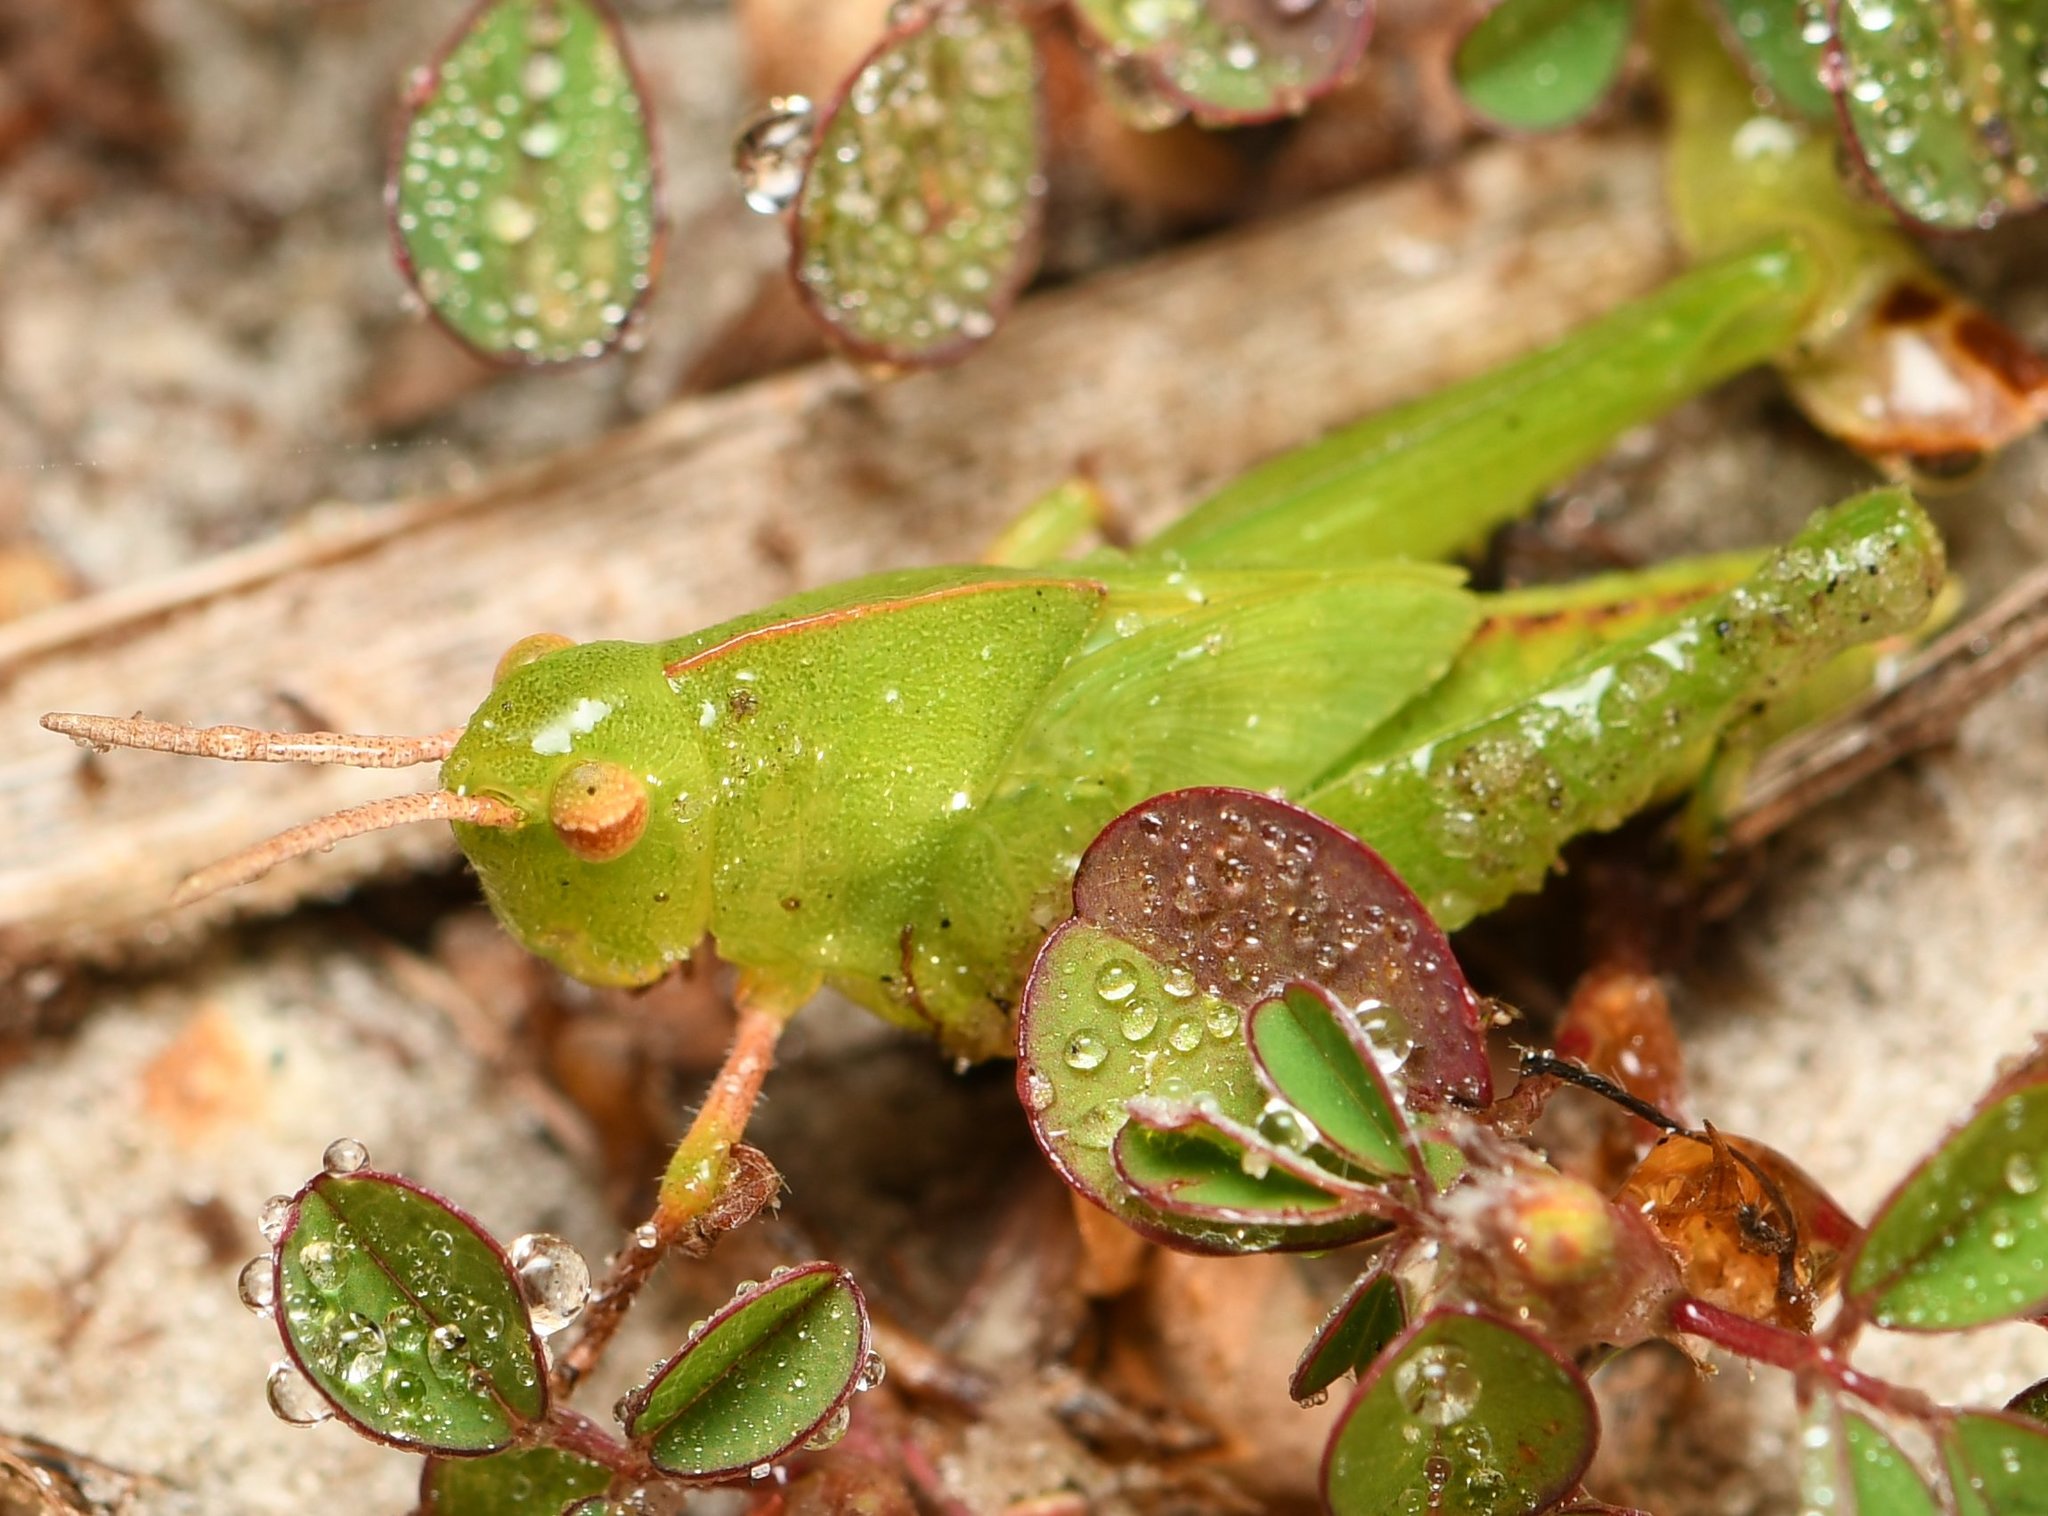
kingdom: Animalia
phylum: Arthropoda
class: Insecta
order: Orthoptera
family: Acrididae
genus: Chortophaga
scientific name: Chortophaga australior
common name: Southern green-striped grasshopper
